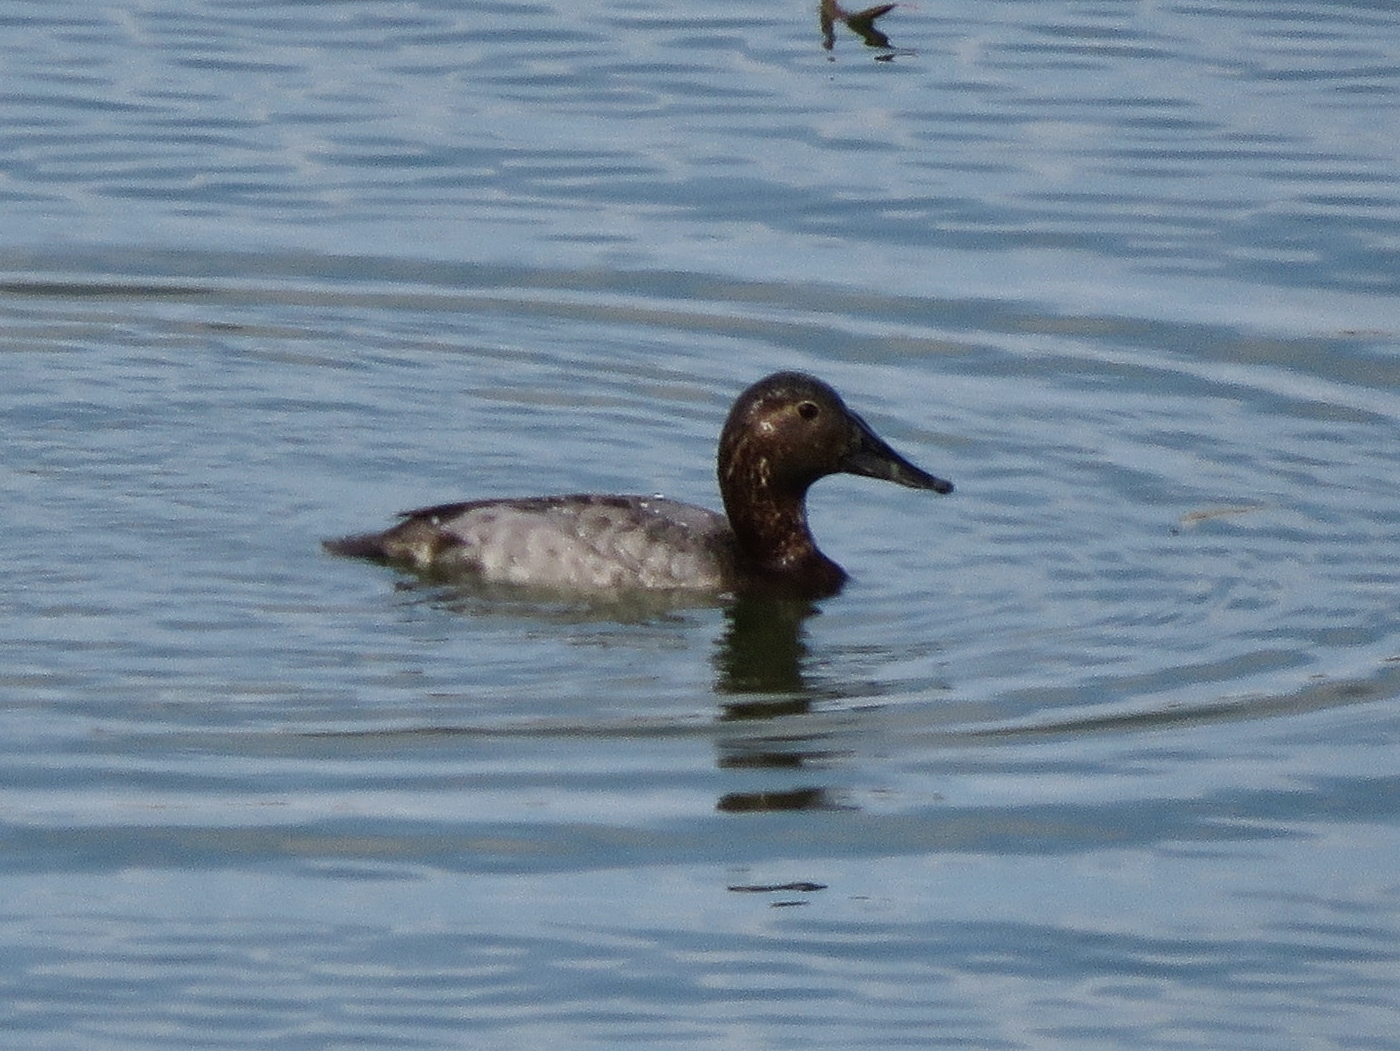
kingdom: Animalia
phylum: Chordata
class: Aves
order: Anseriformes
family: Anatidae
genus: Aythya
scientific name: Aythya valisineria
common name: Canvasback
